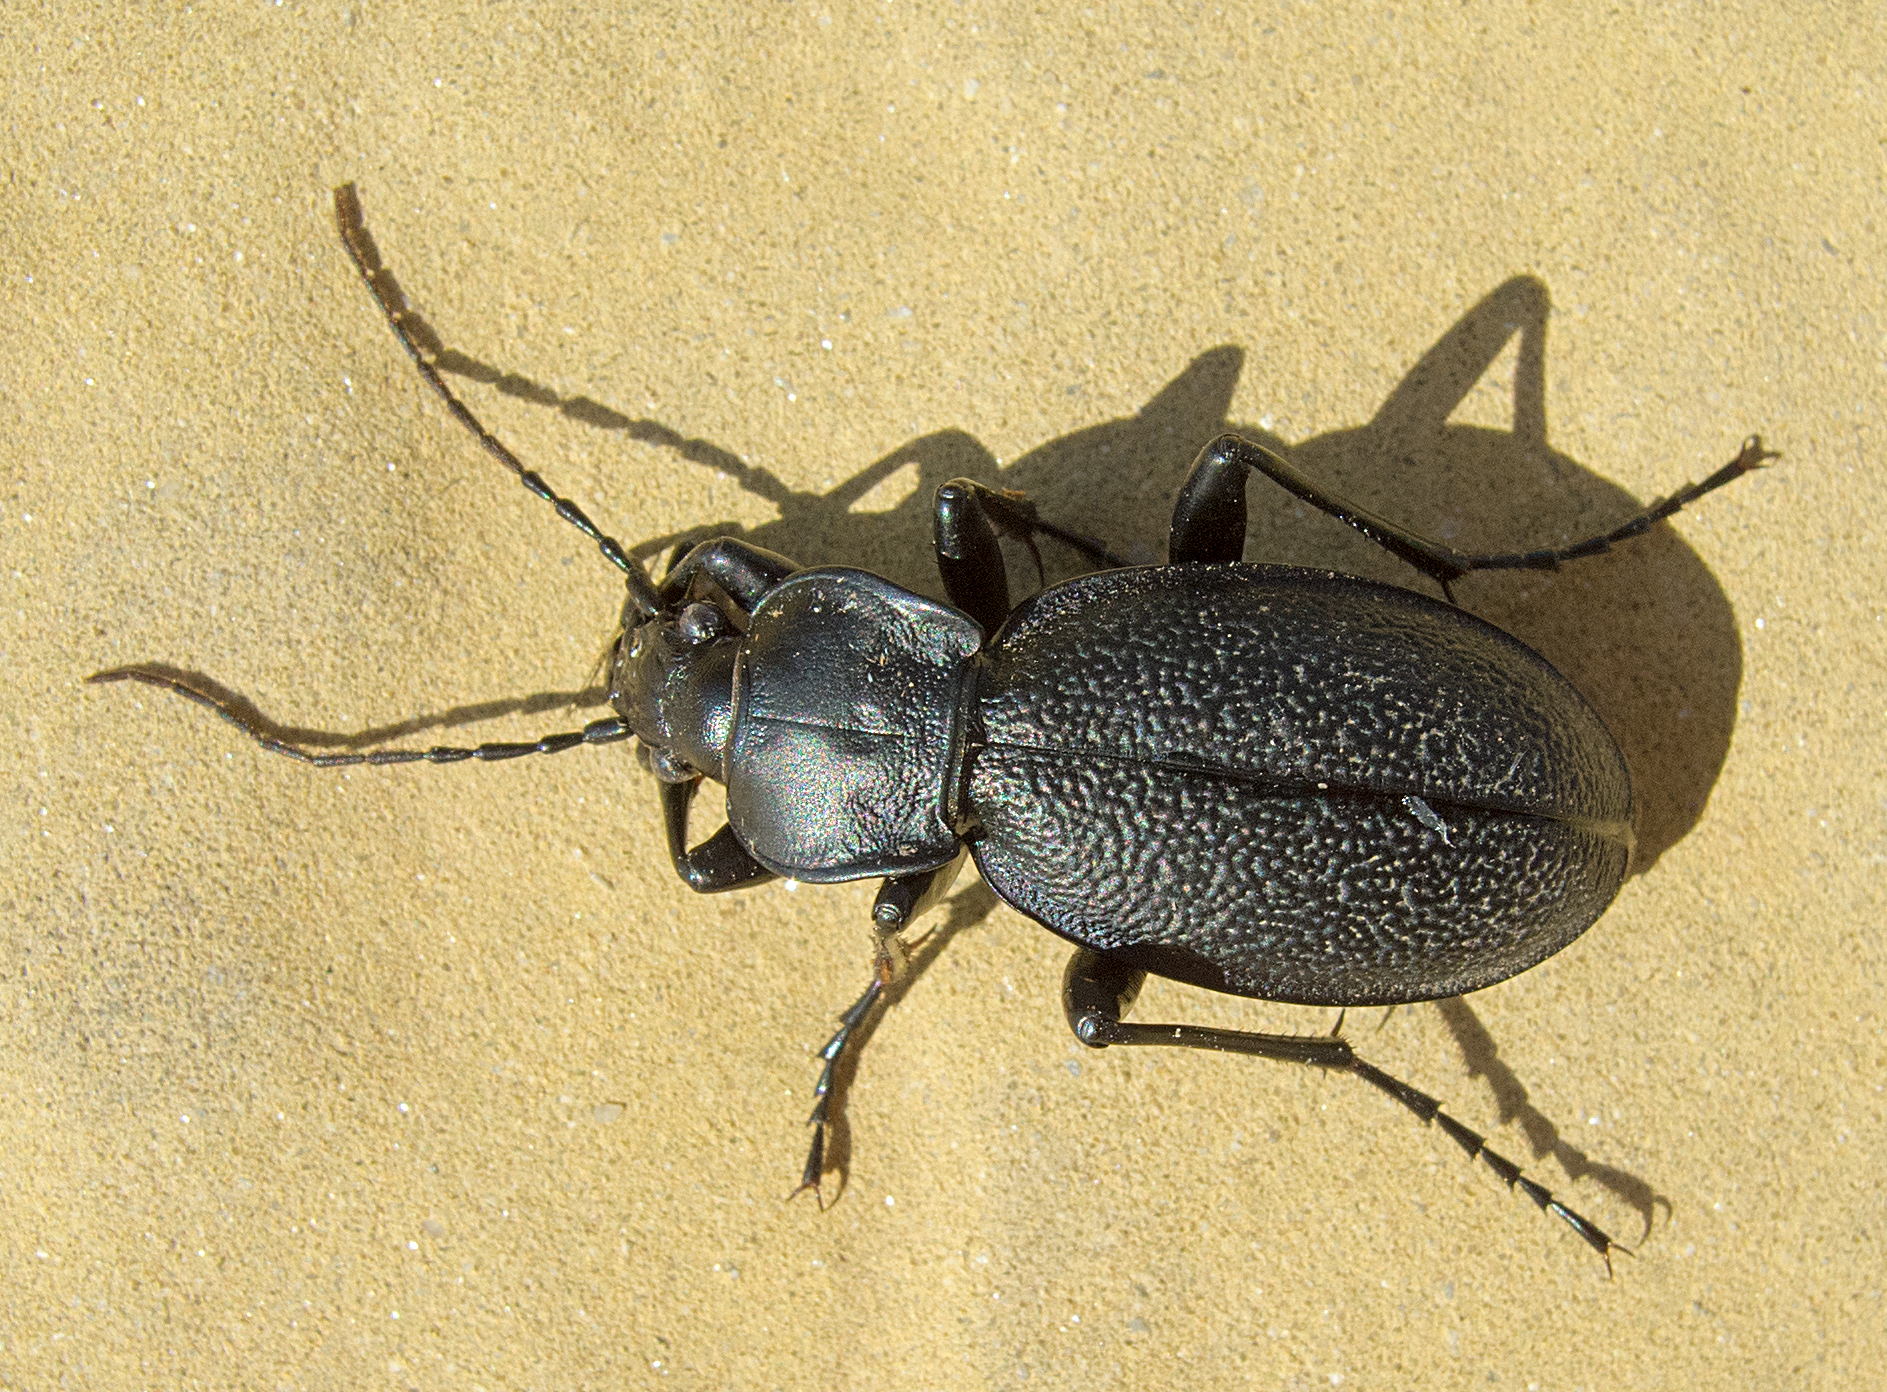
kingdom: Animalia
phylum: Arthropoda
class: Insecta
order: Coleoptera
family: Carabidae
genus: Carabus
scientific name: Carabus coriaceus
